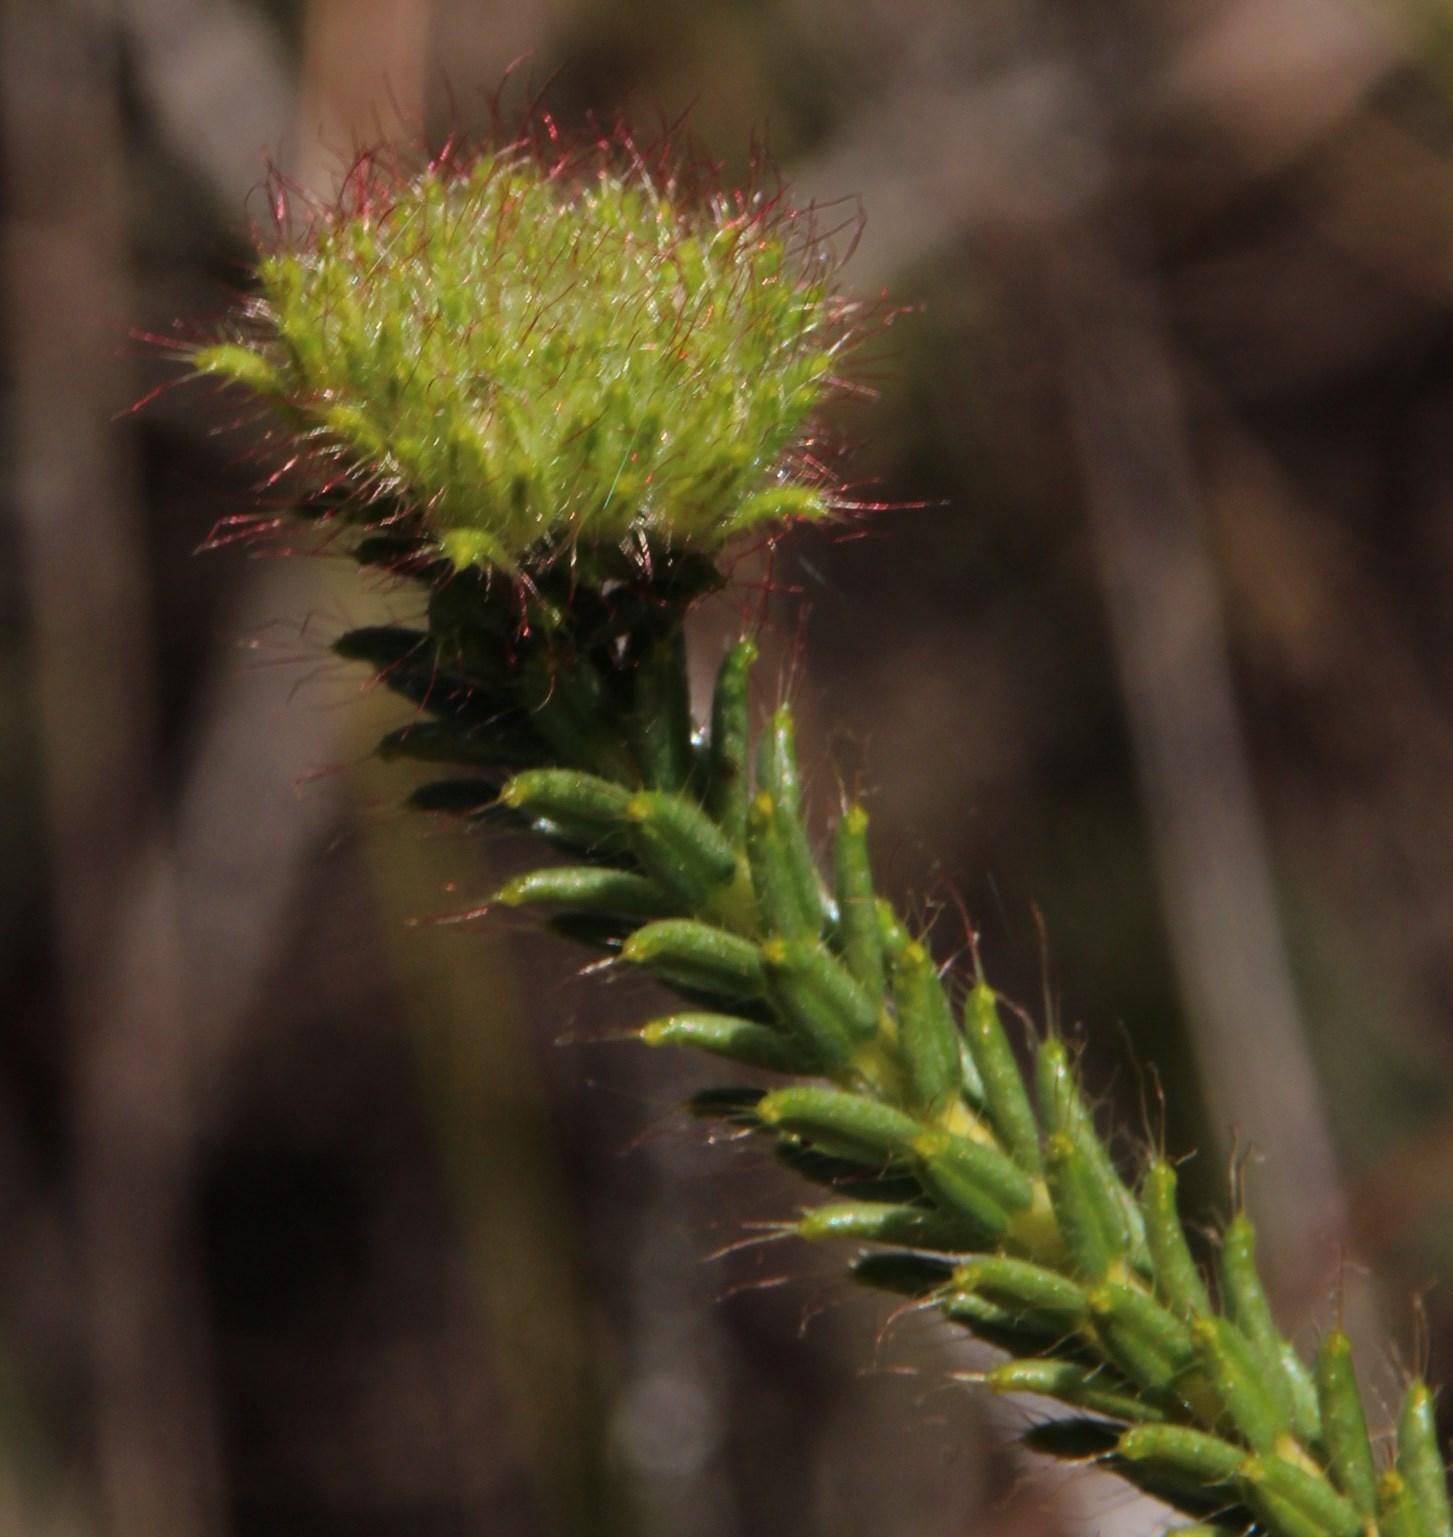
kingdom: Plantae
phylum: Tracheophyta
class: Magnoliopsida
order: Ericales
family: Ericaceae
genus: Erica
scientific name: Erica cerinthoides
